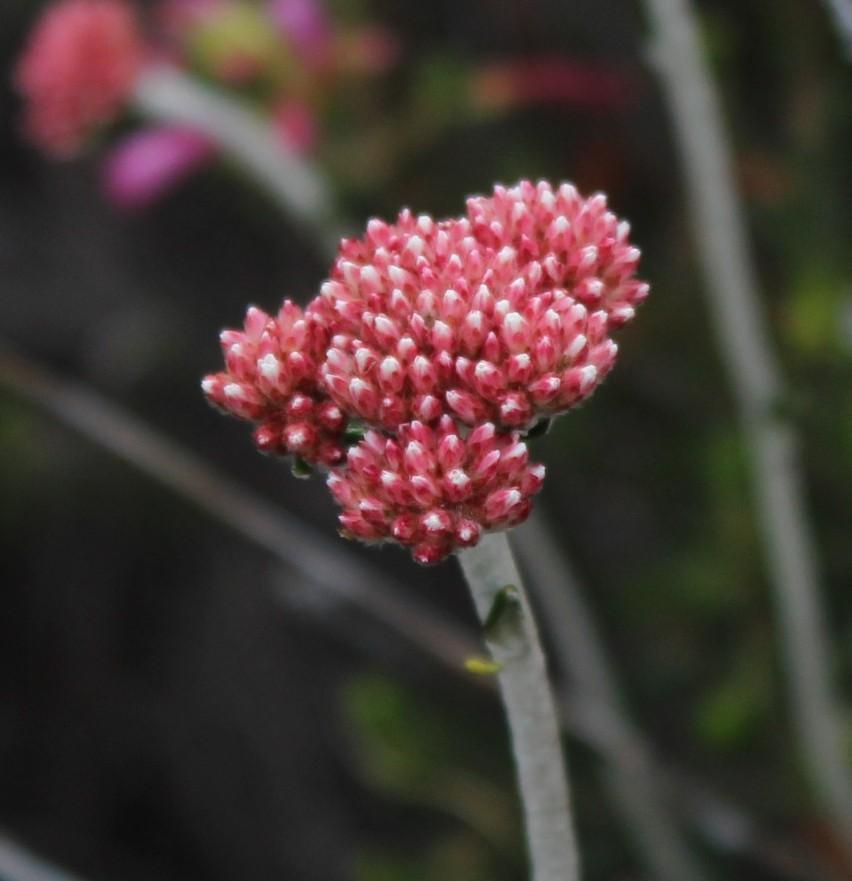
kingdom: Plantae
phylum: Tracheophyta
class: Magnoliopsida
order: Asterales
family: Asteraceae
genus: Anaxeton
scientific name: Anaxeton laeve
